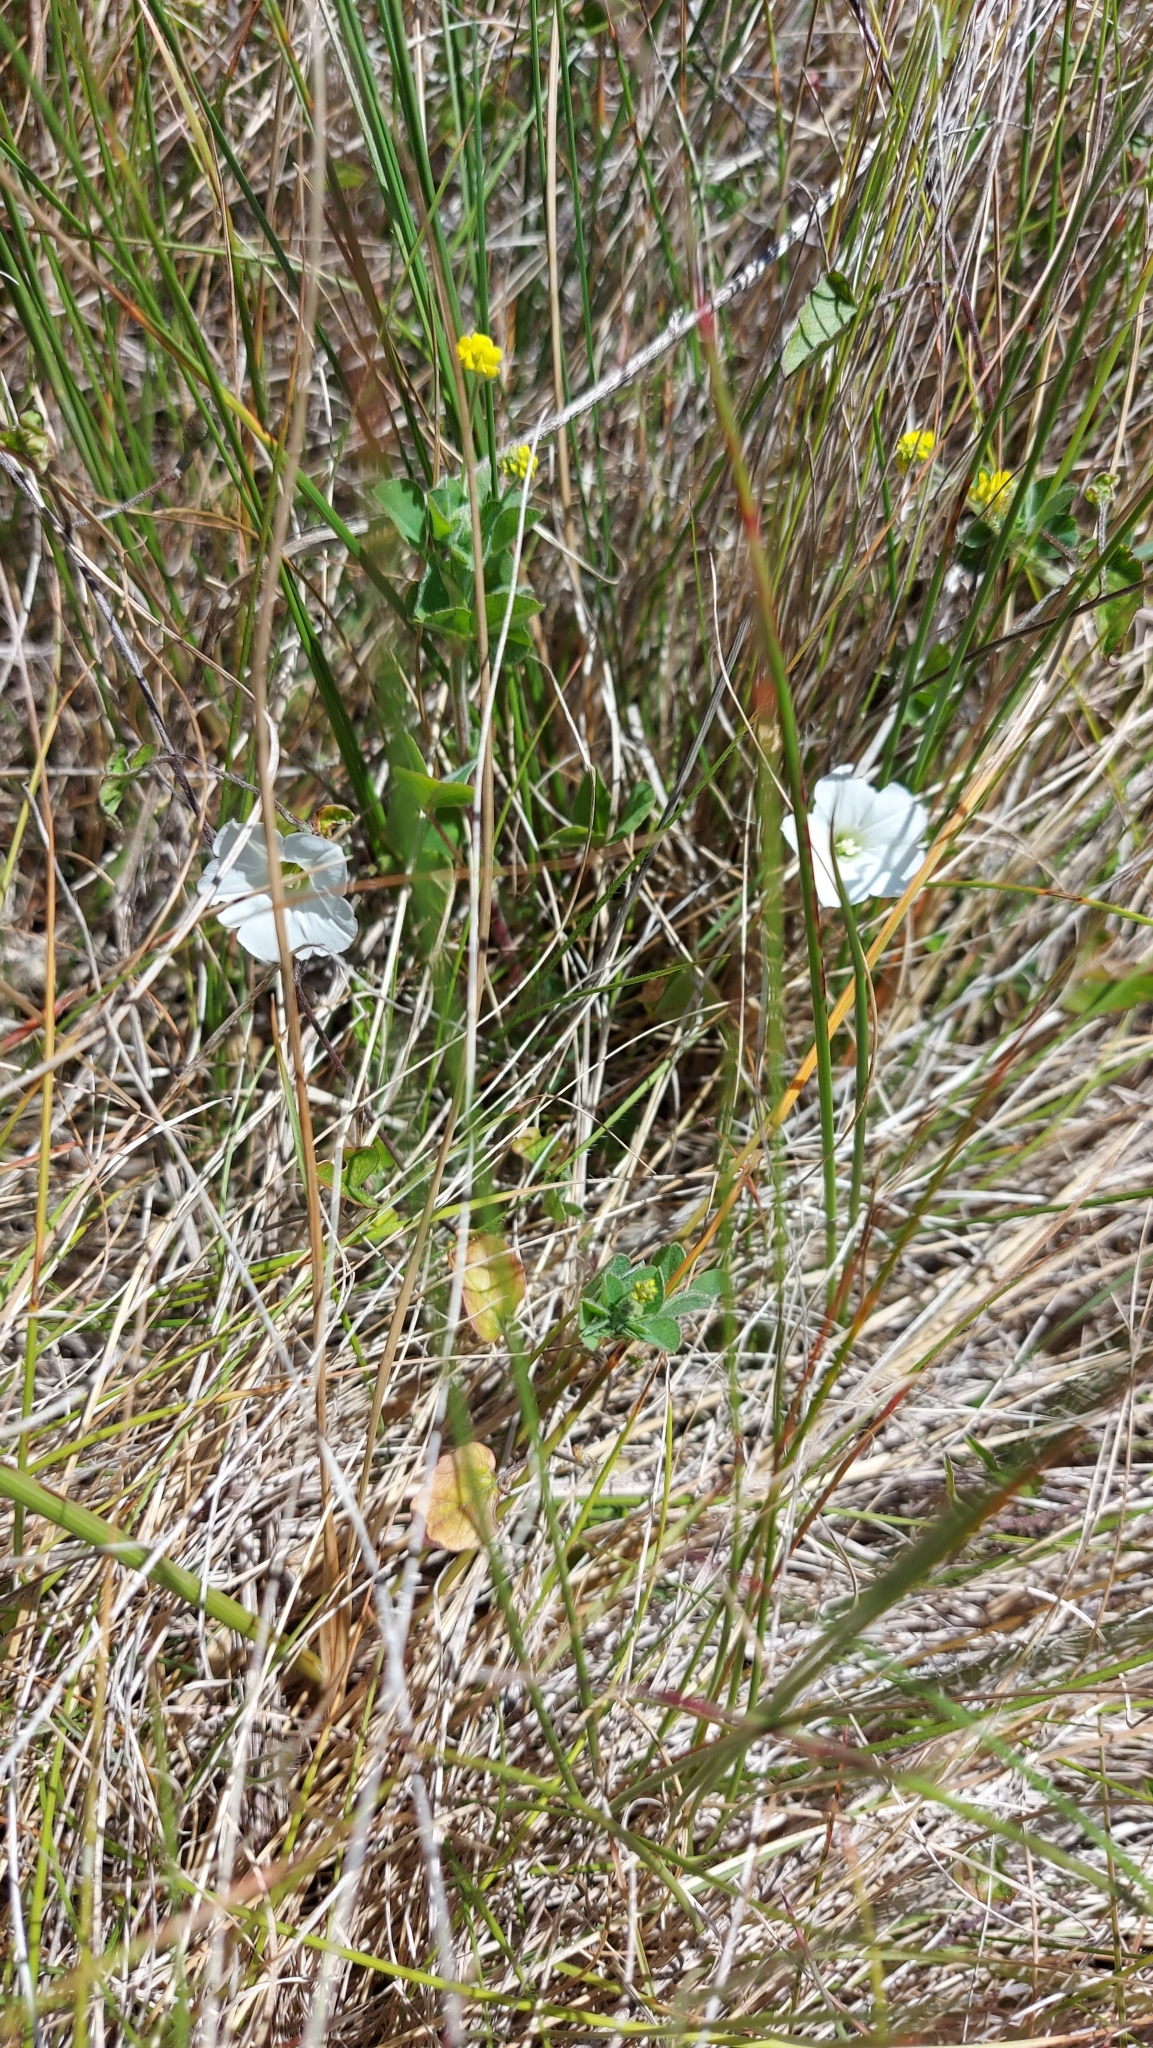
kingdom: Plantae
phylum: Tracheophyta
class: Magnoliopsida
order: Solanales
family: Convolvulaceae
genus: Convolvulus
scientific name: Convolvulus waitaha
